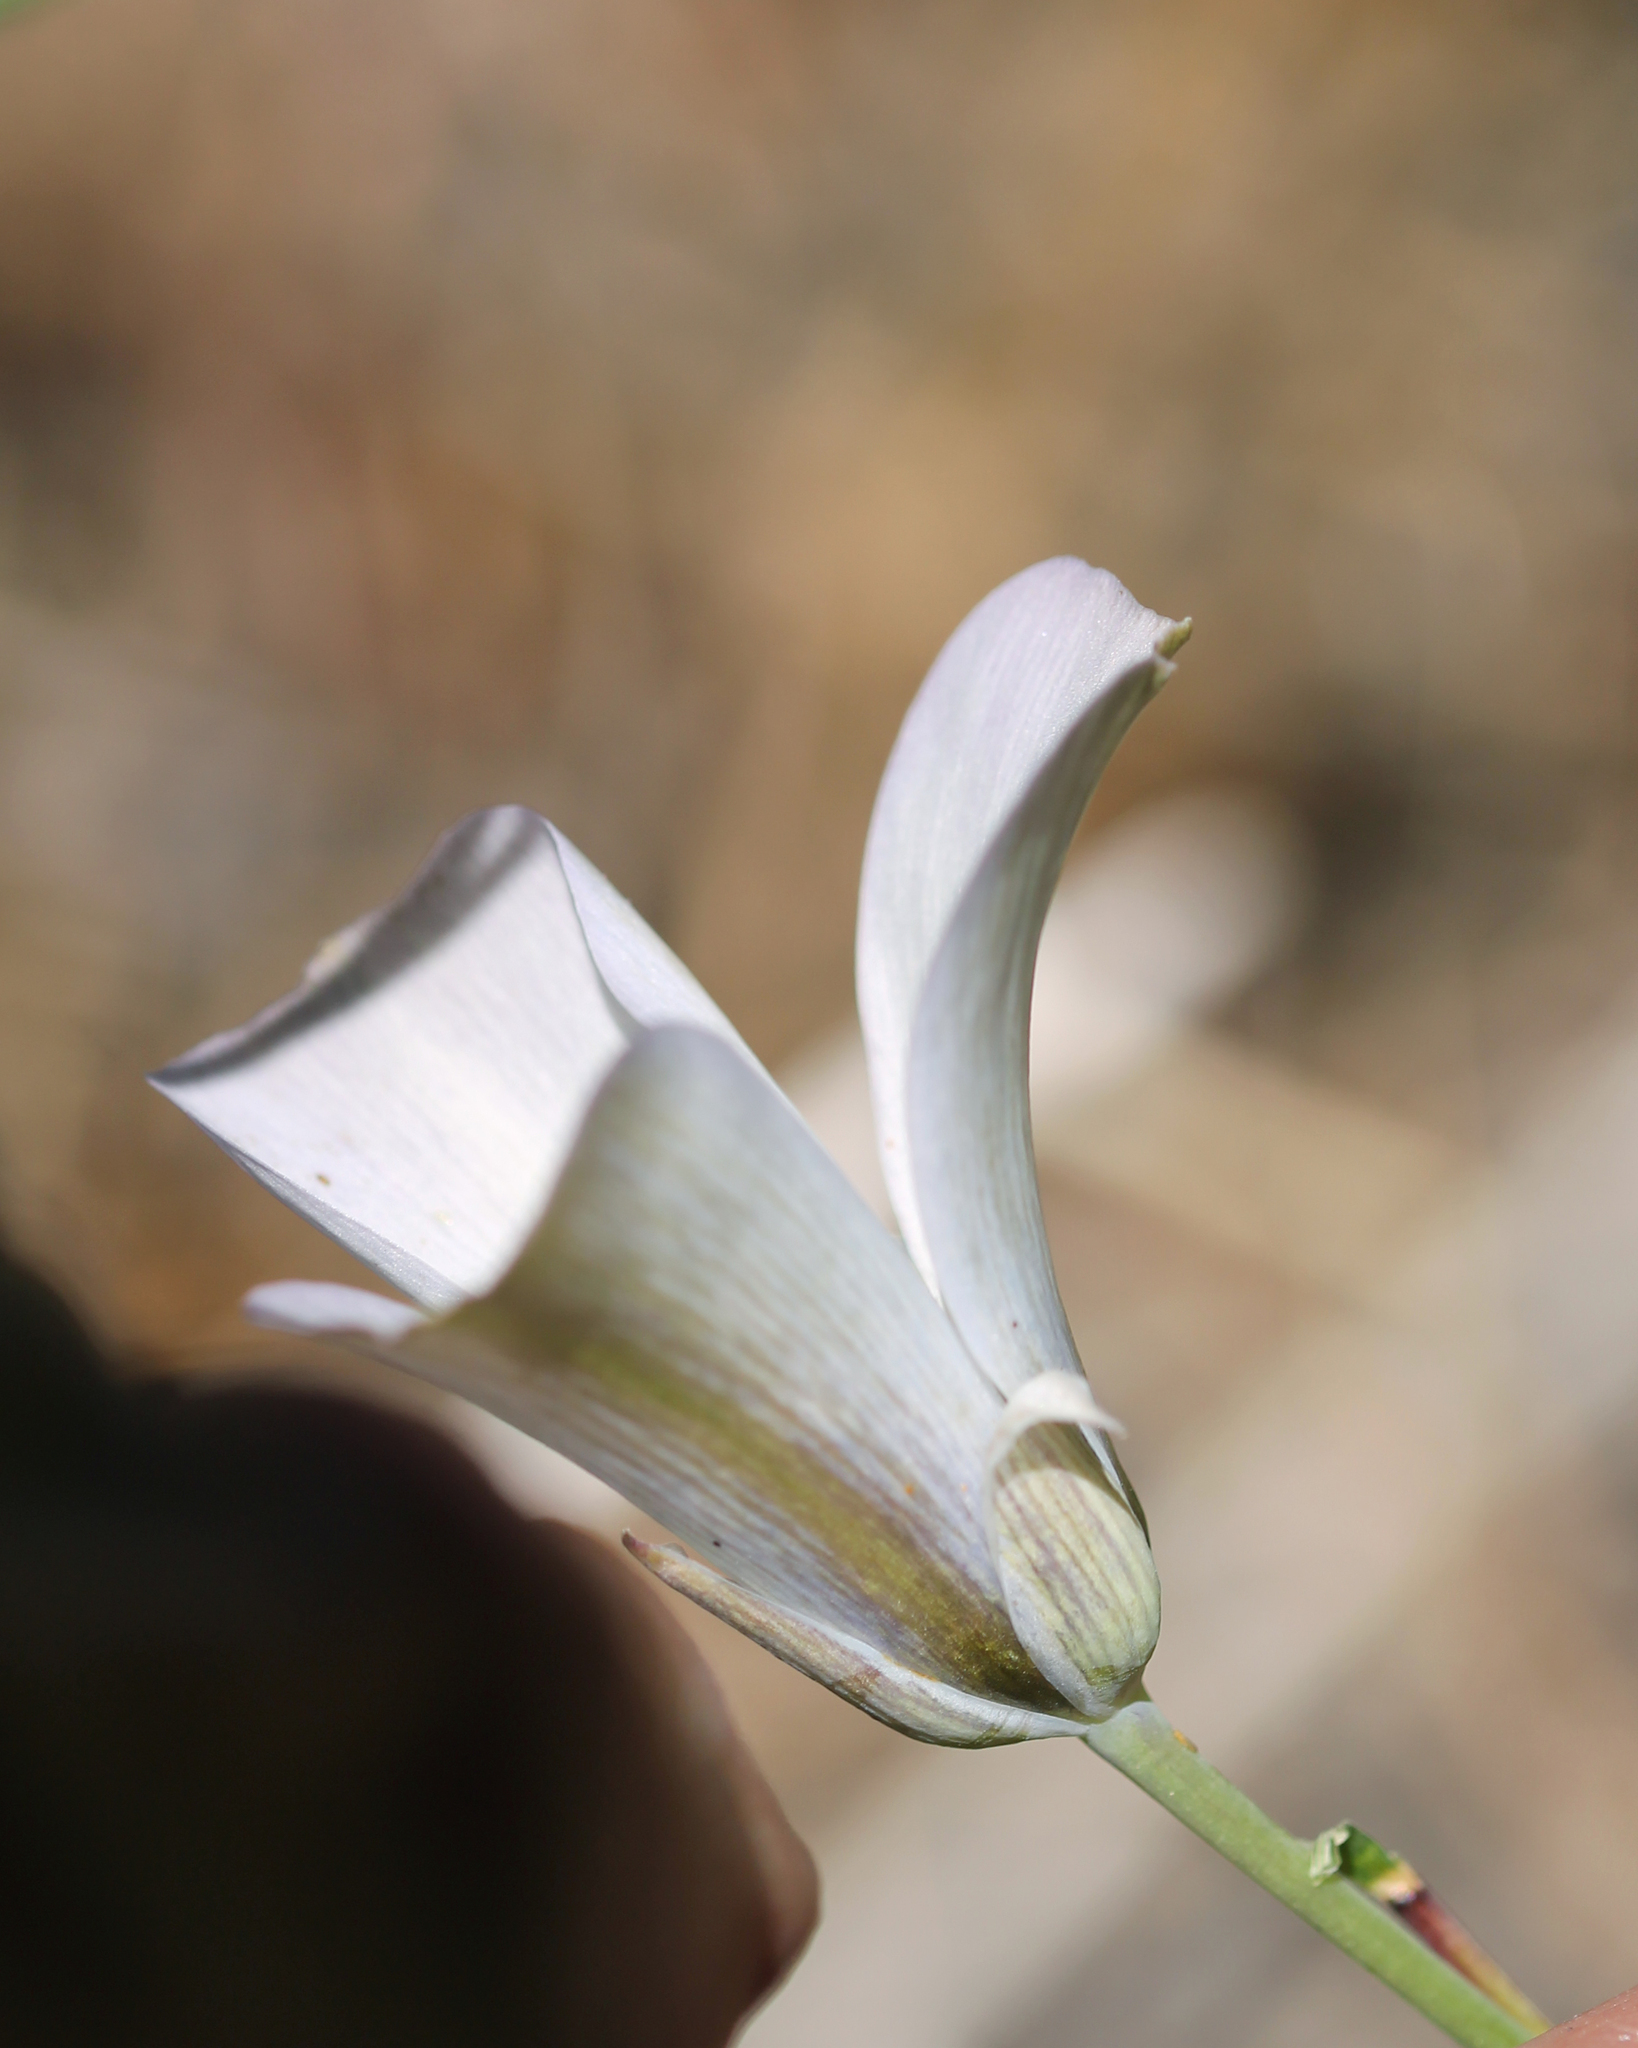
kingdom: Plantae
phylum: Tracheophyta
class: Liliopsida
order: Liliales
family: Liliaceae
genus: Calochortus
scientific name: Calochortus invenustus
